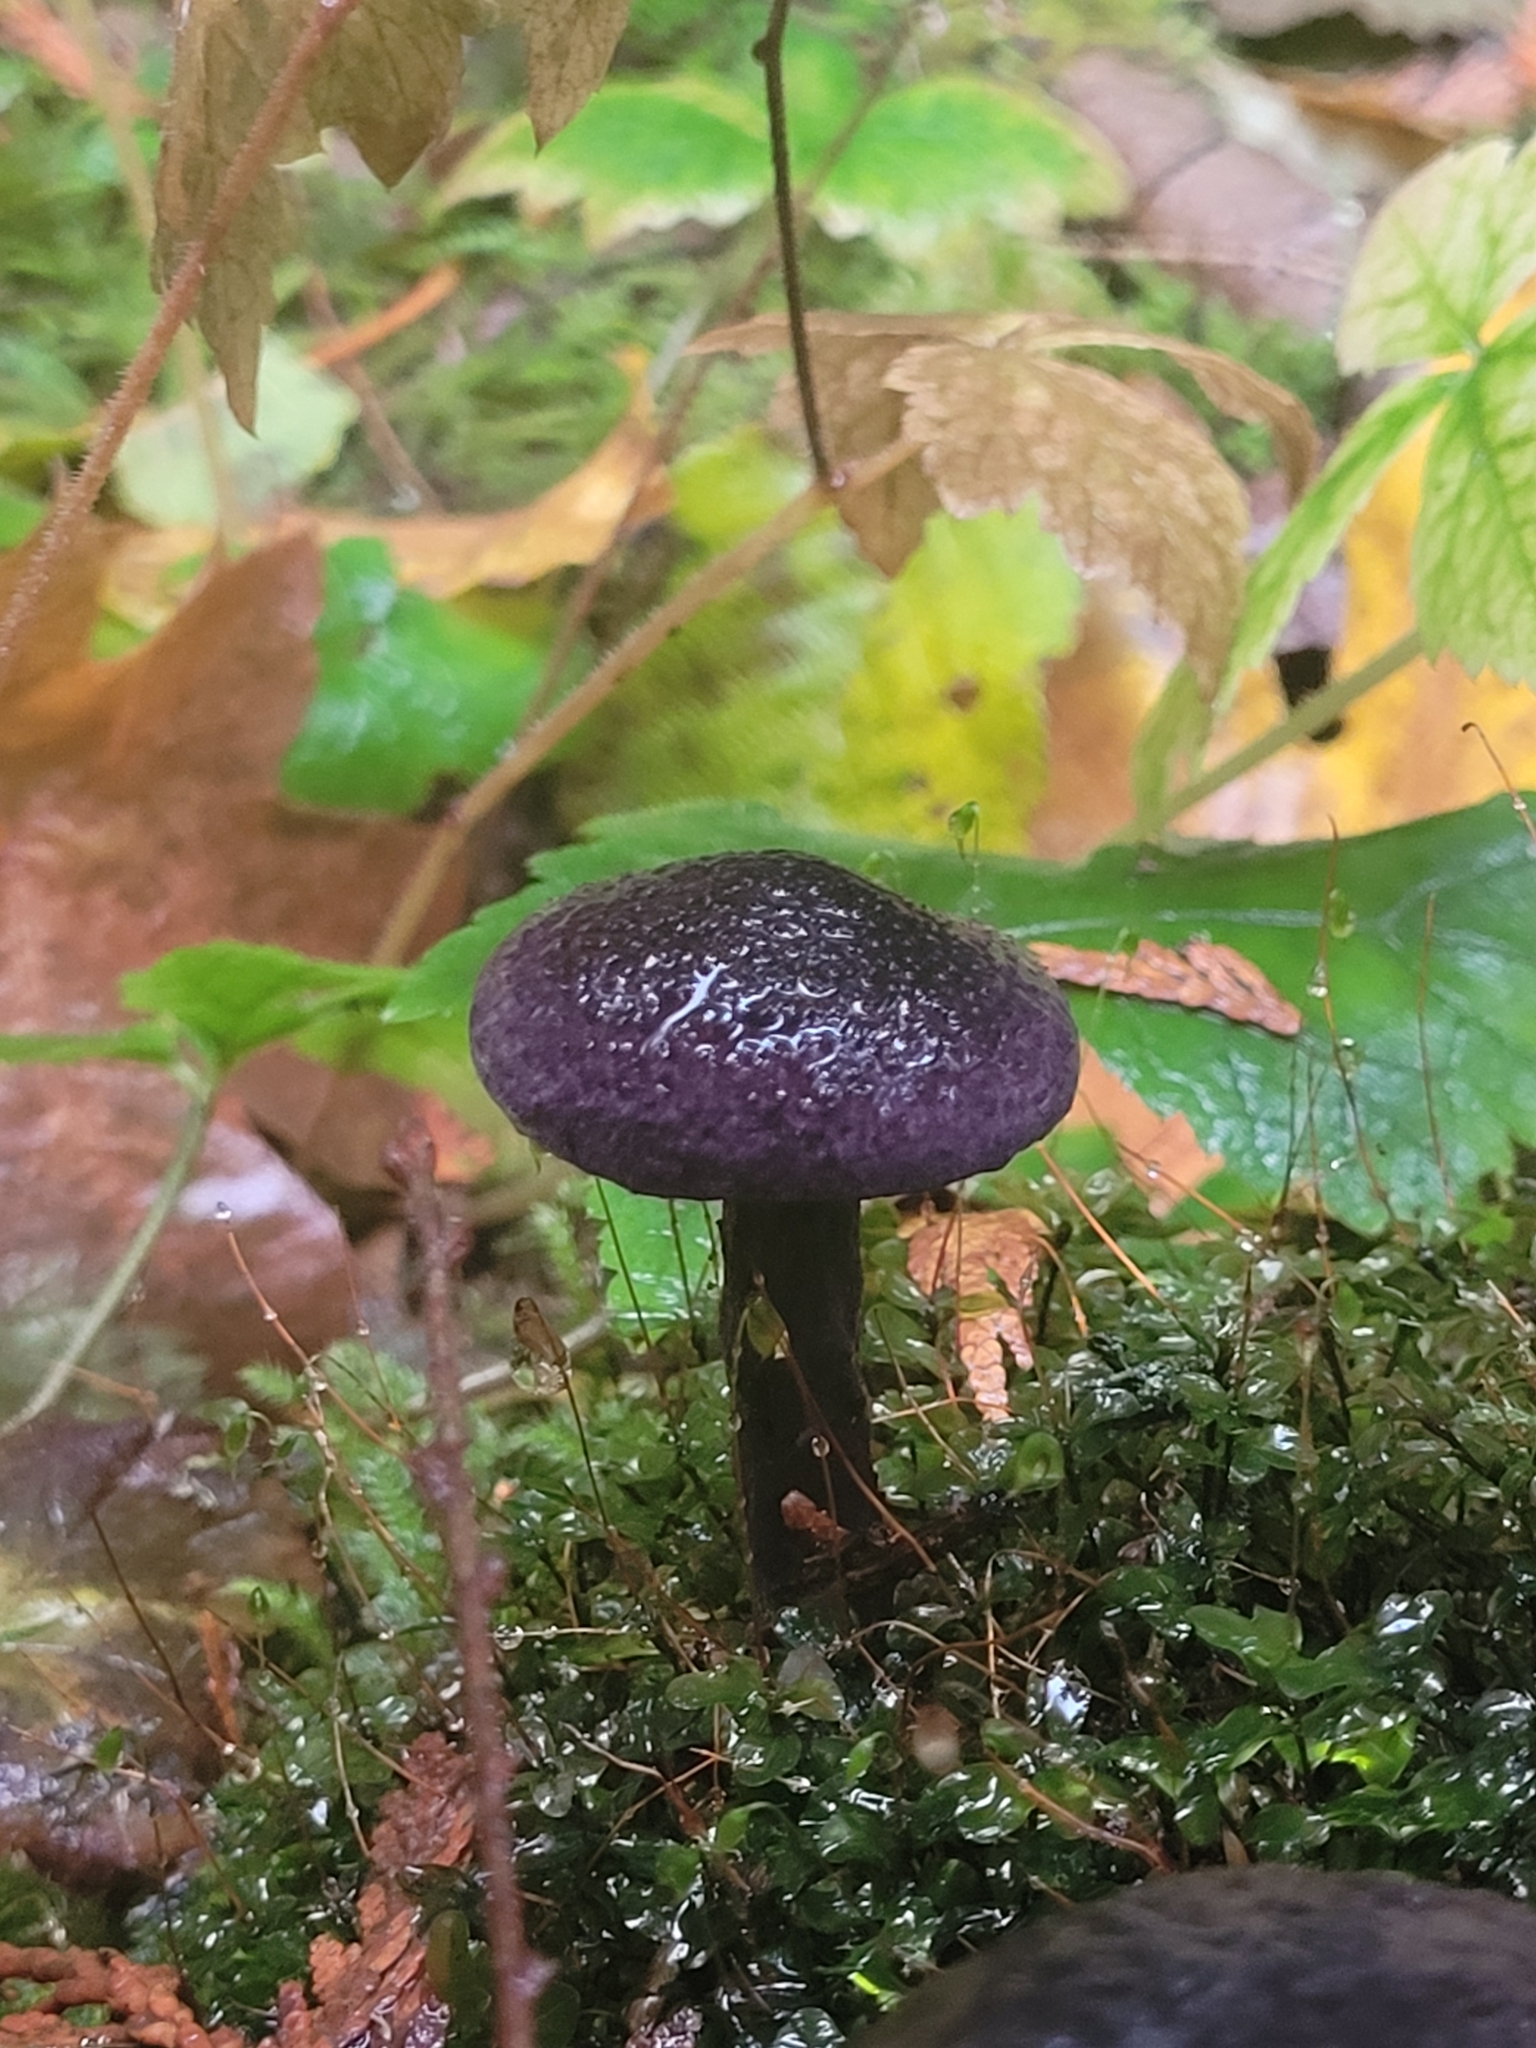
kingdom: Fungi
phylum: Basidiomycota
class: Agaricomycetes
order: Agaricales
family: Cortinariaceae
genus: Cortinarius
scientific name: Cortinarius violaceus
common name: Violet webcap
